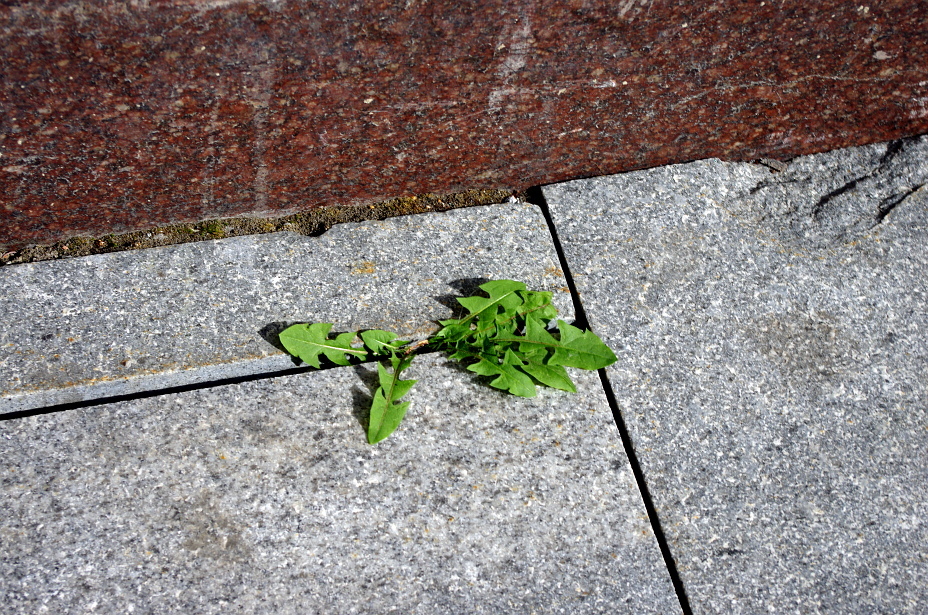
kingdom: Plantae
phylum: Tracheophyta
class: Magnoliopsida
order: Asterales
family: Asteraceae
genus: Taraxacum
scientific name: Taraxacum officinale
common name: Common dandelion
